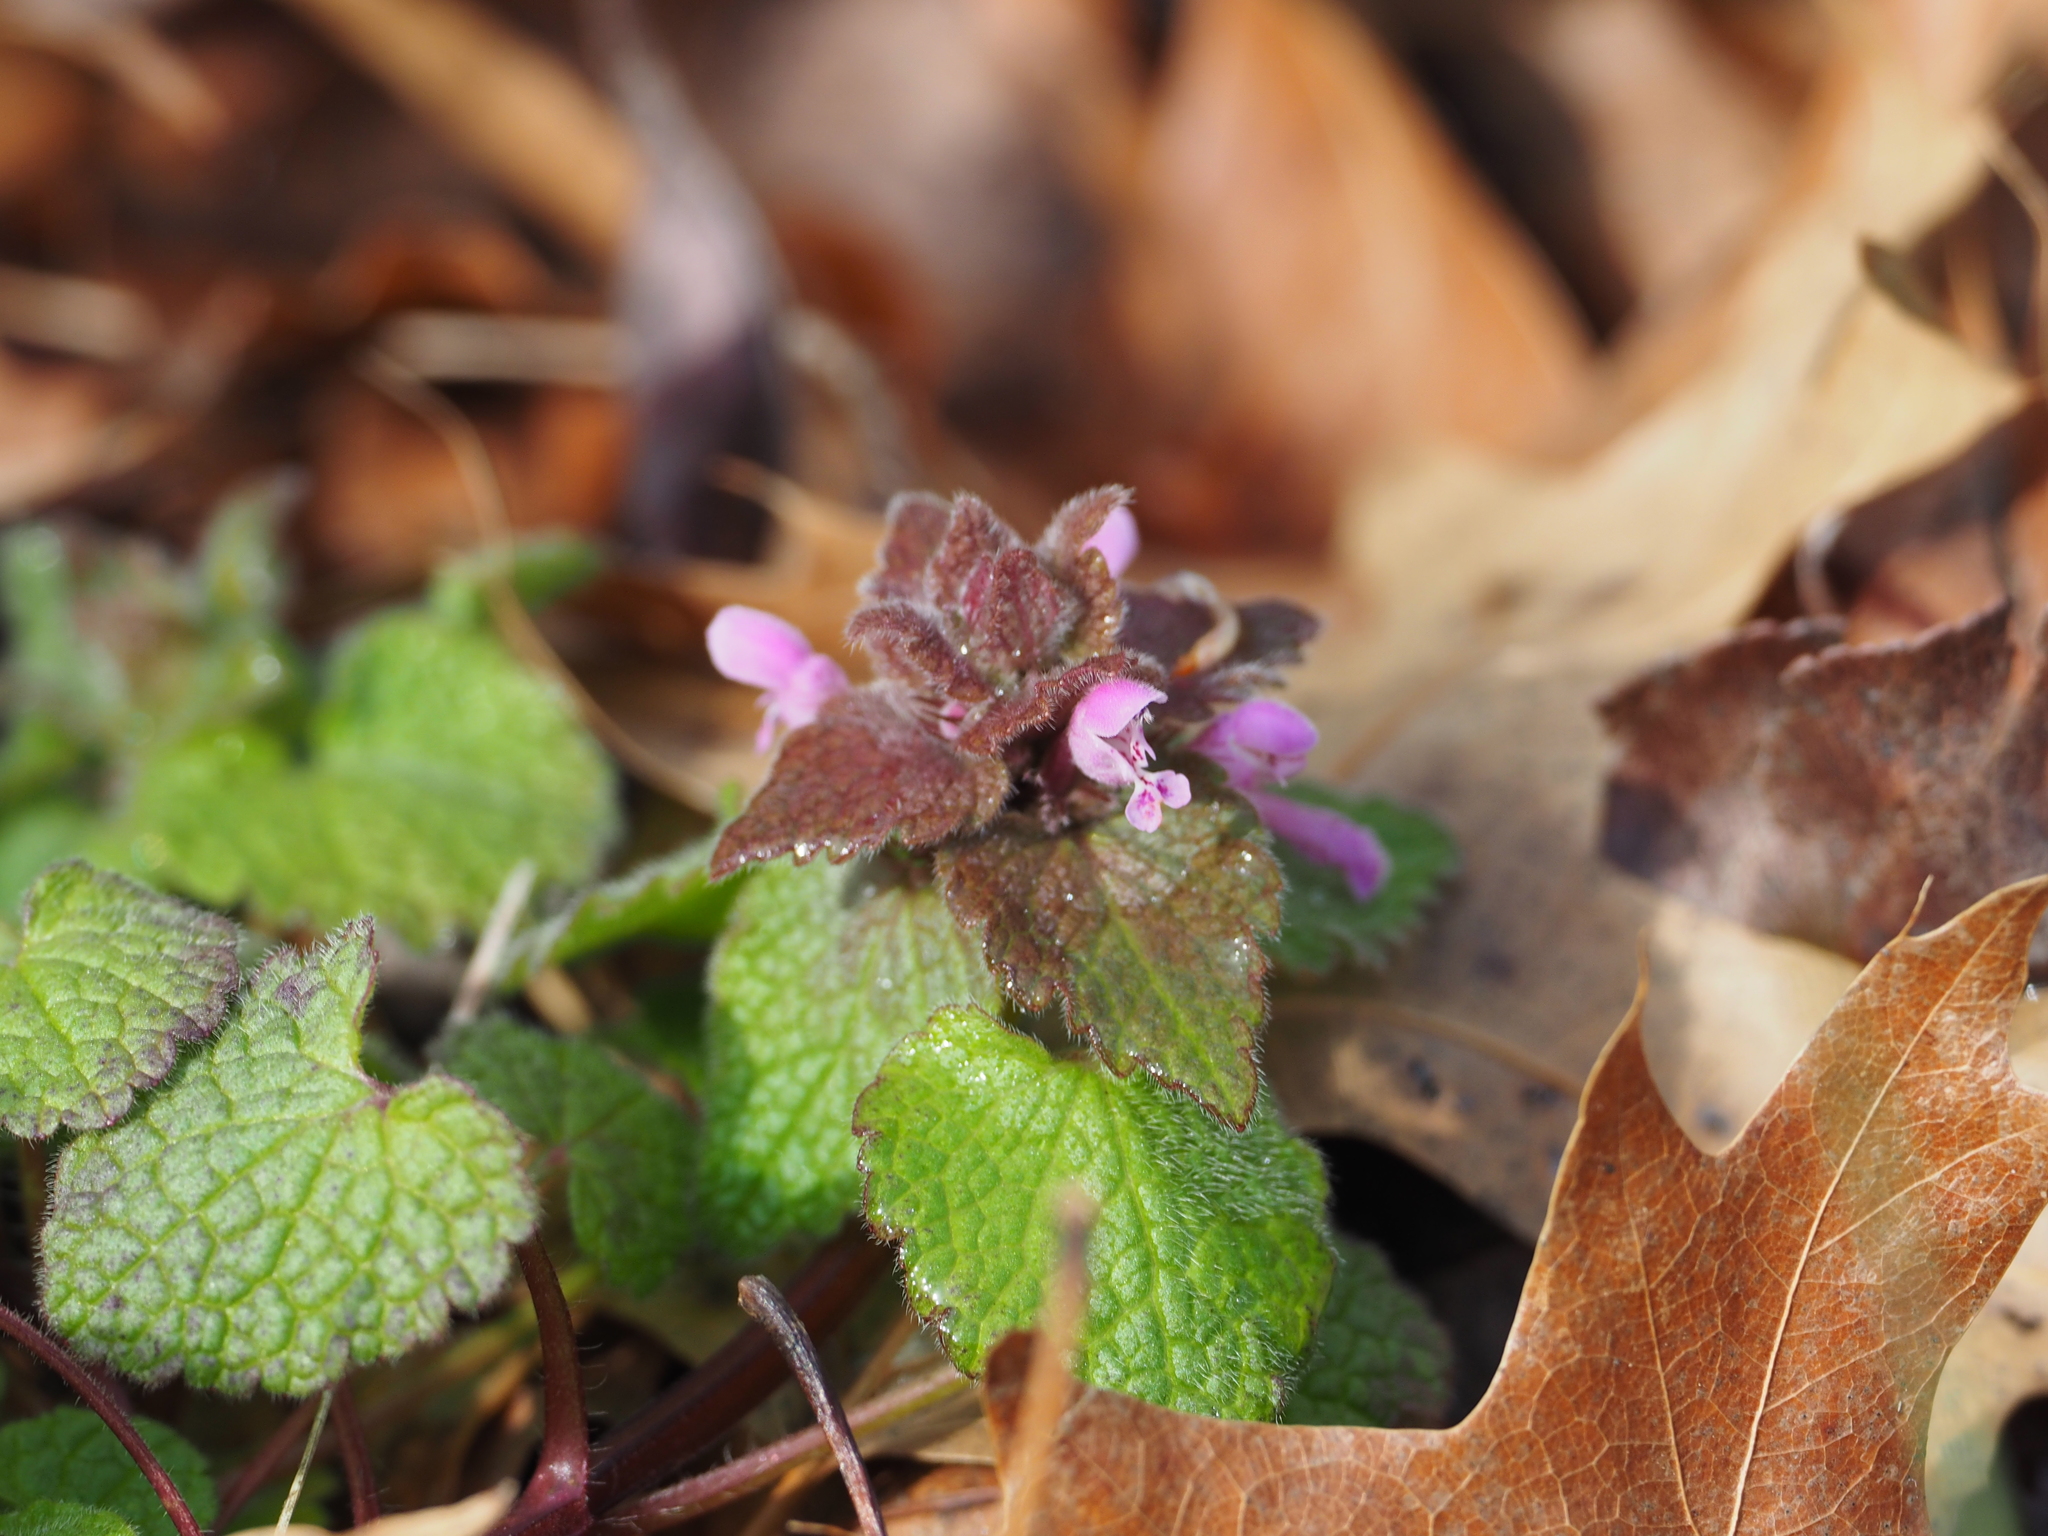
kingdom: Plantae
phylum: Tracheophyta
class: Magnoliopsida
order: Lamiales
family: Lamiaceae
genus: Lamium
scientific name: Lamium purpureum
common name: Red dead-nettle
